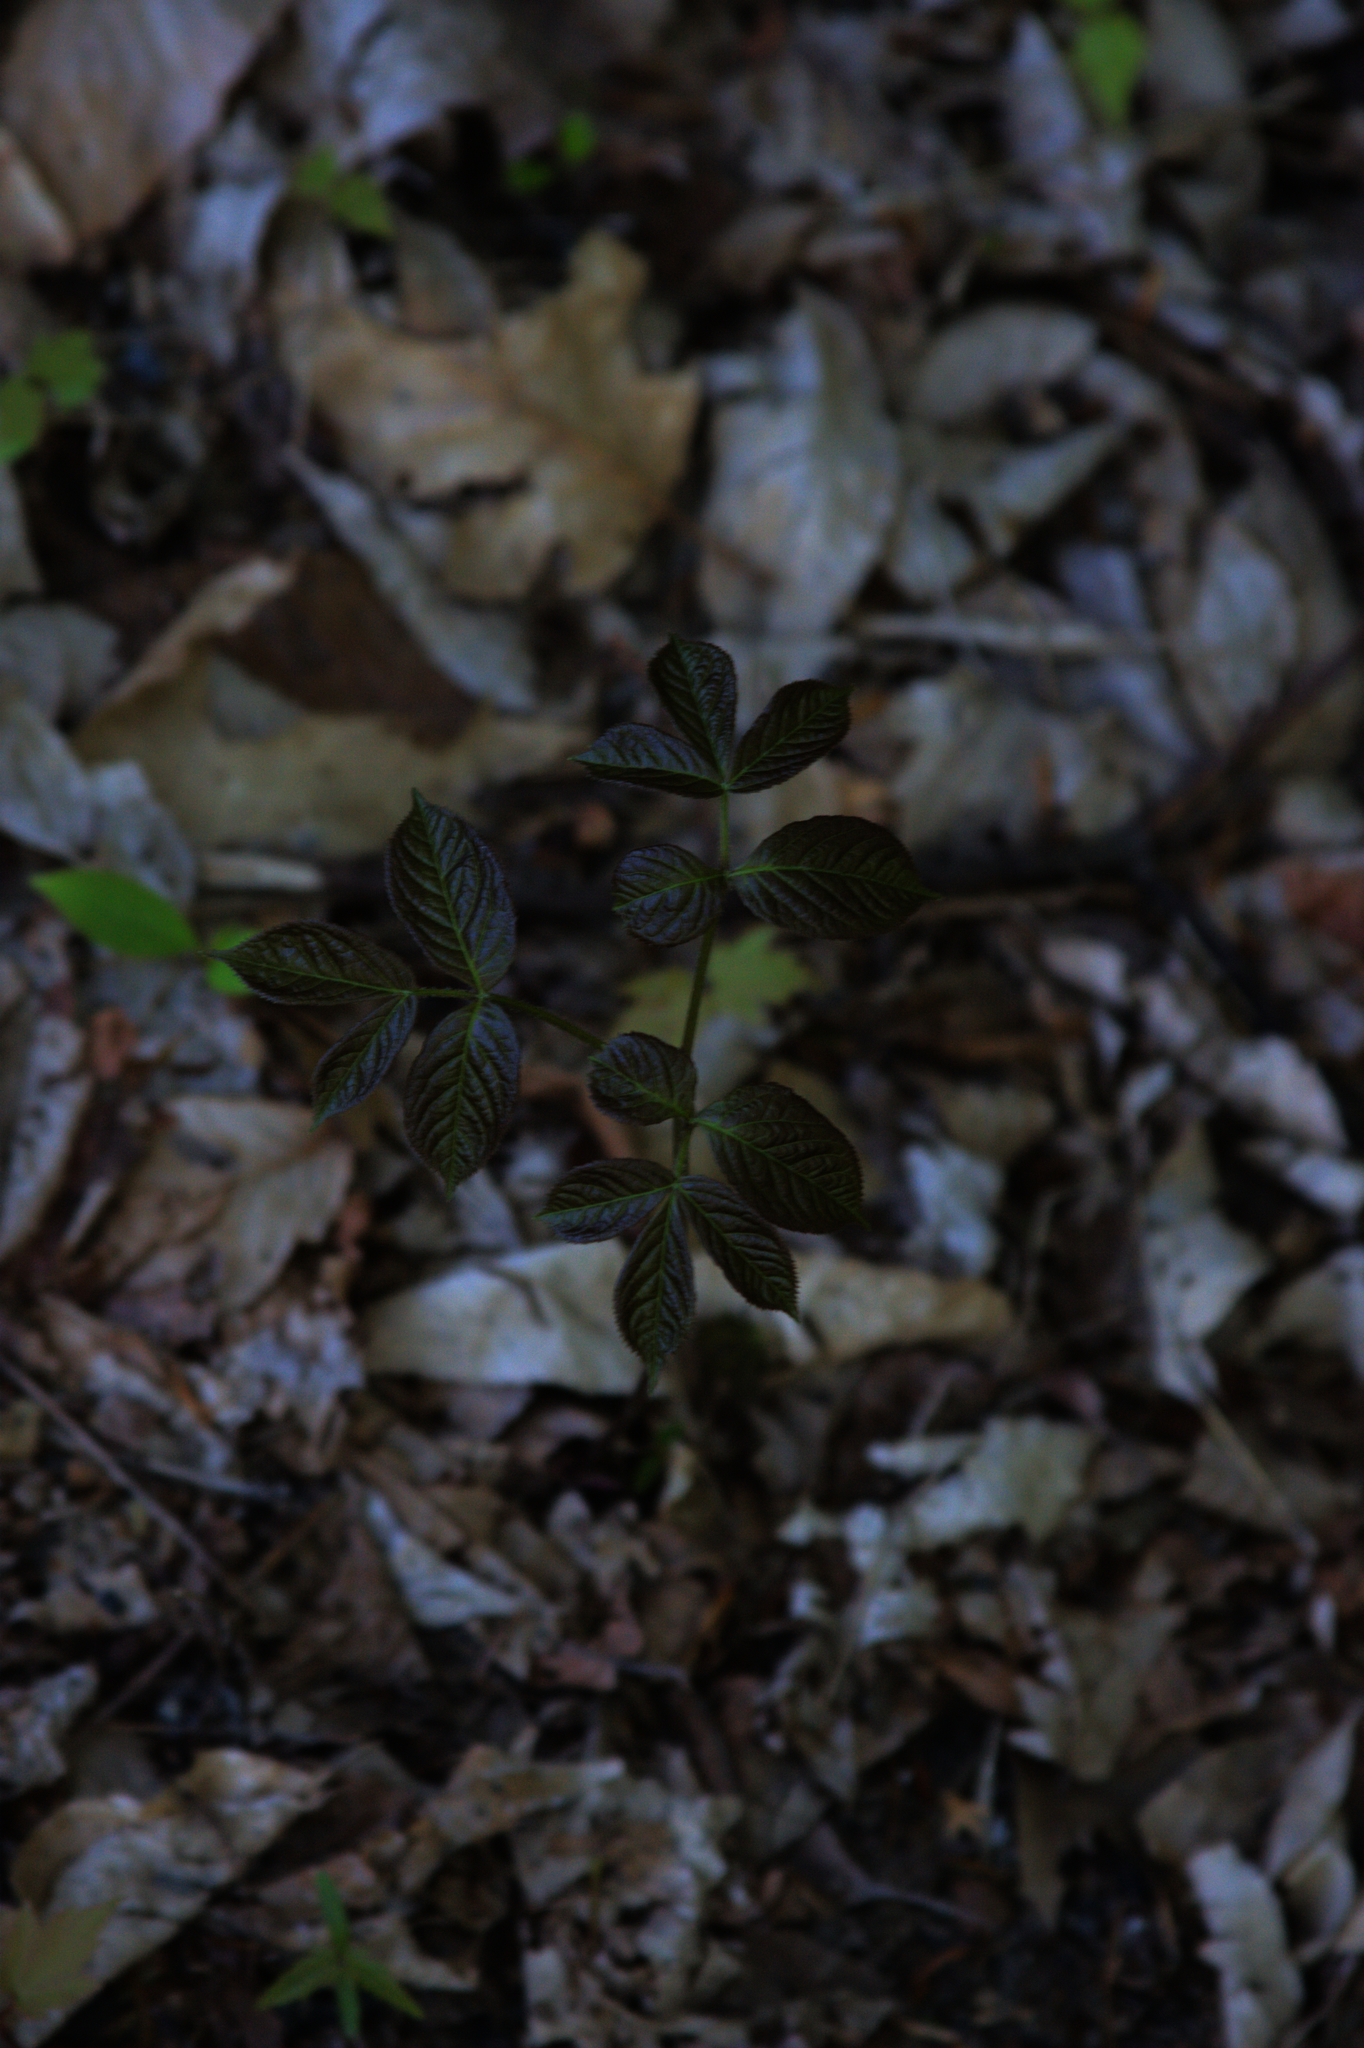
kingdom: Plantae
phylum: Tracheophyta
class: Magnoliopsida
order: Apiales
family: Araliaceae
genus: Aralia
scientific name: Aralia nudicaulis
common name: Wild sarsaparilla
